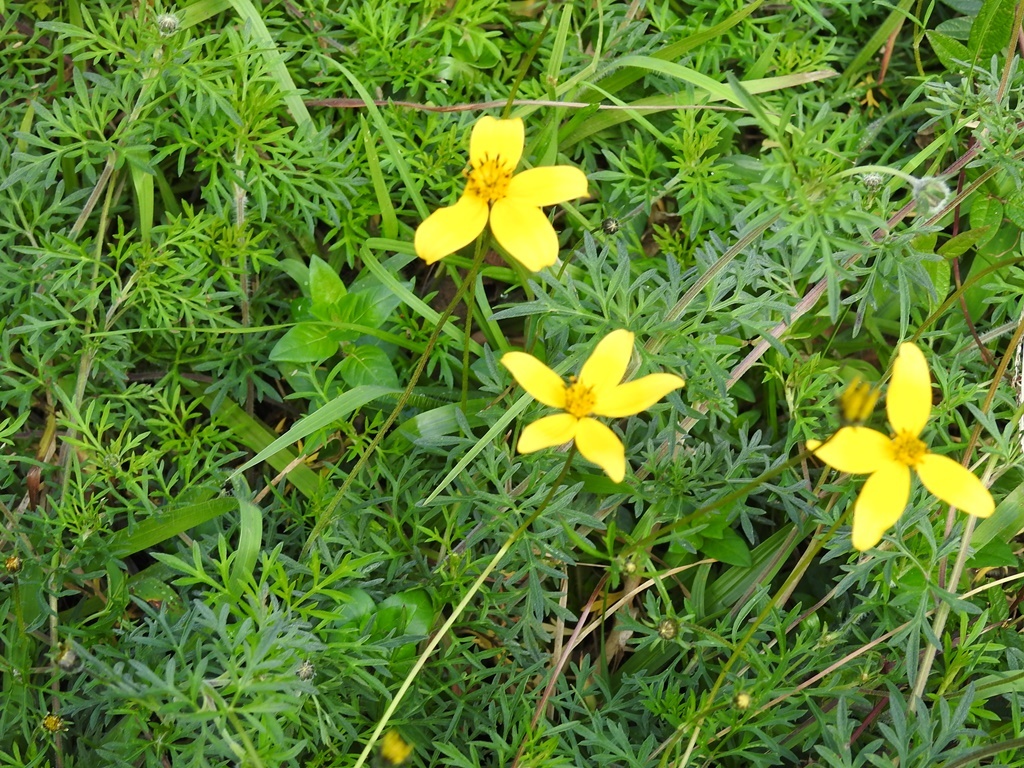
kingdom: Plantae
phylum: Tracheophyta
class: Magnoliopsida
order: Asterales
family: Asteraceae
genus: Bidens
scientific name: Bidens triplinervia
